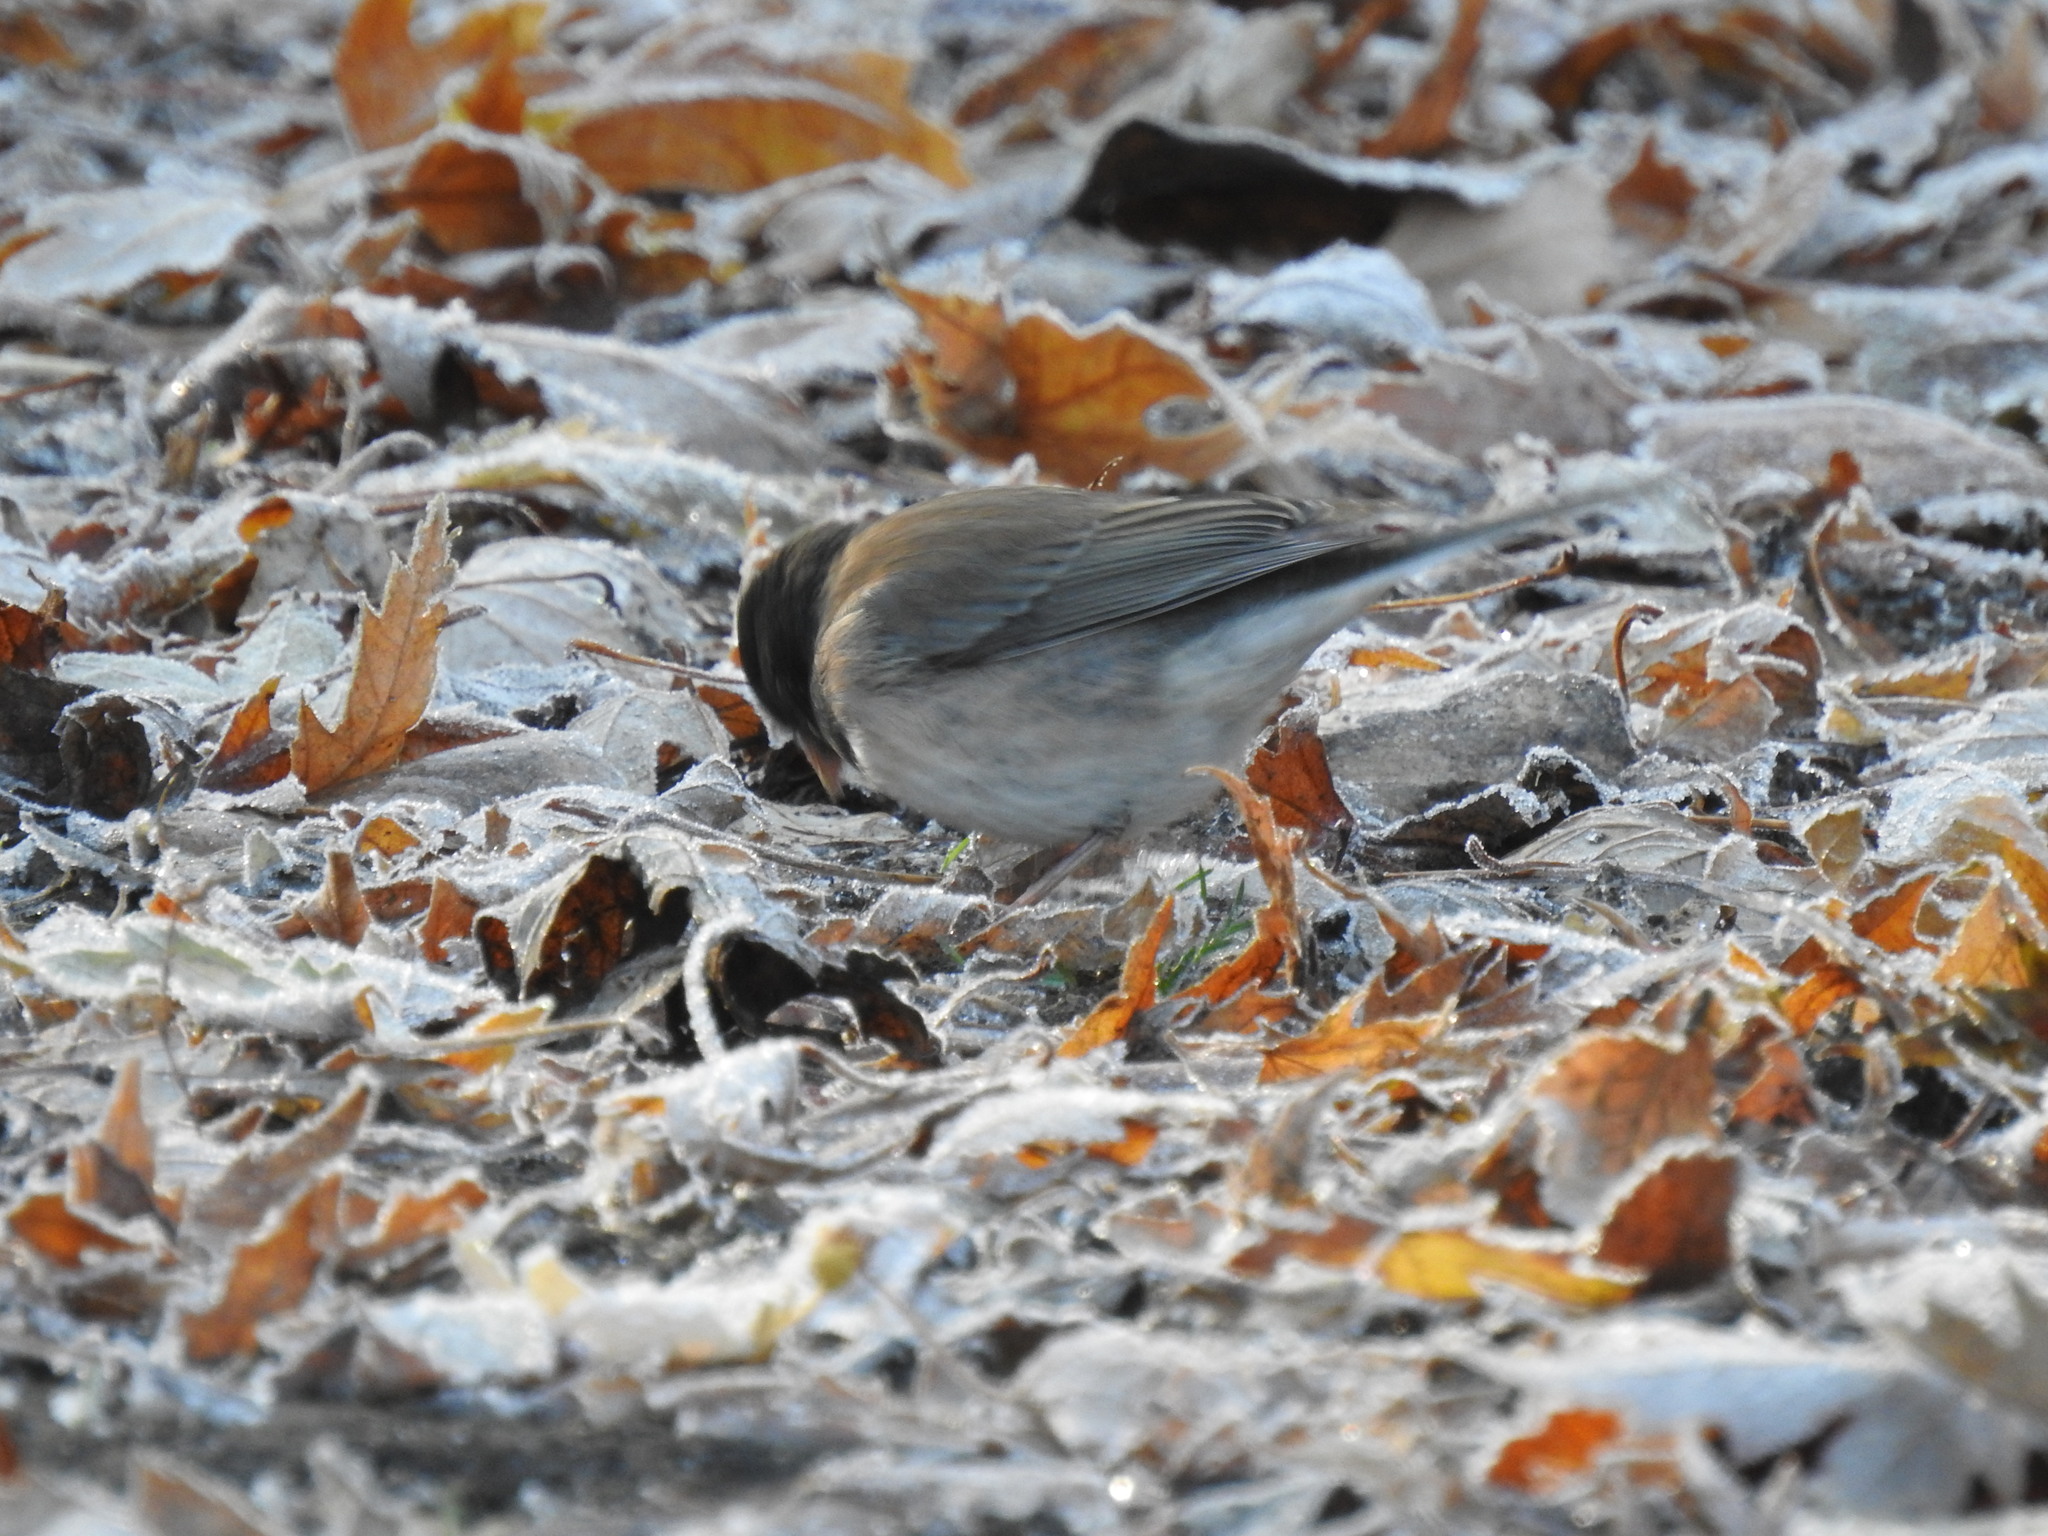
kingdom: Animalia
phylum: Chordata
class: Aves
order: Passeriformes
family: Passerellidae
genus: Junco
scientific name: Junco hyemalis
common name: Dark-eyed junco
